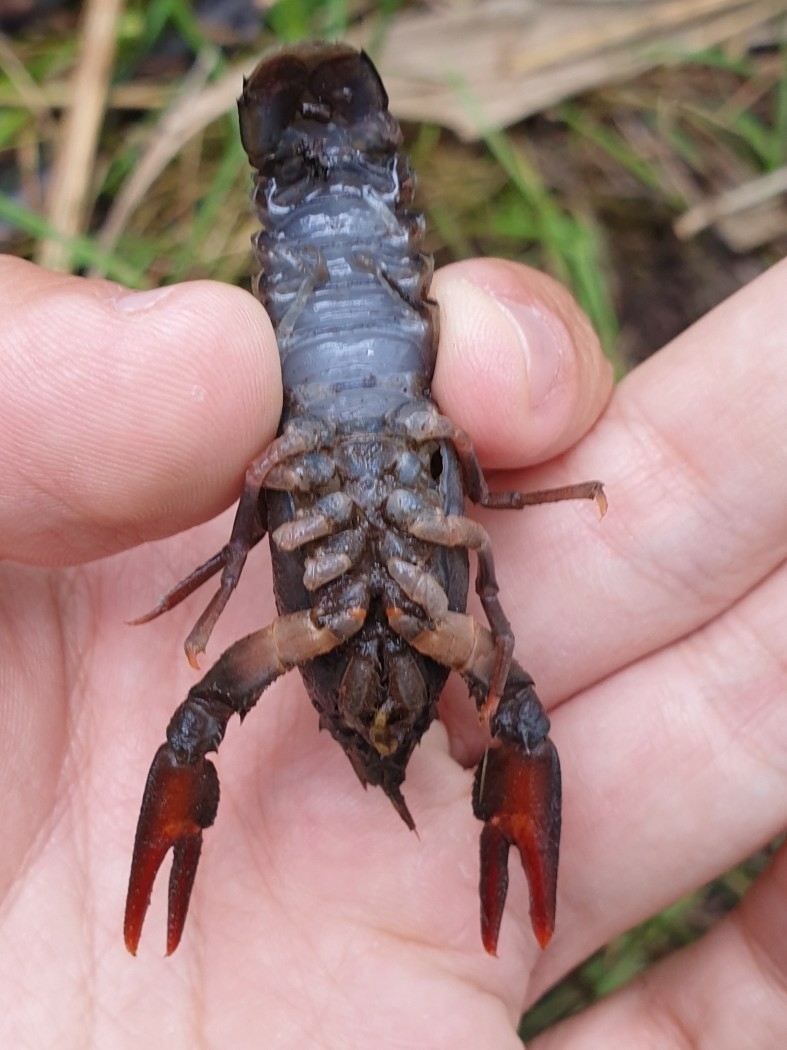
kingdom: Animalia
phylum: Arthropoda
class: Malacostraca
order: Decapoda
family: Astacidae
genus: Astacus
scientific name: Astacus astacus
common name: Noble crayfish
